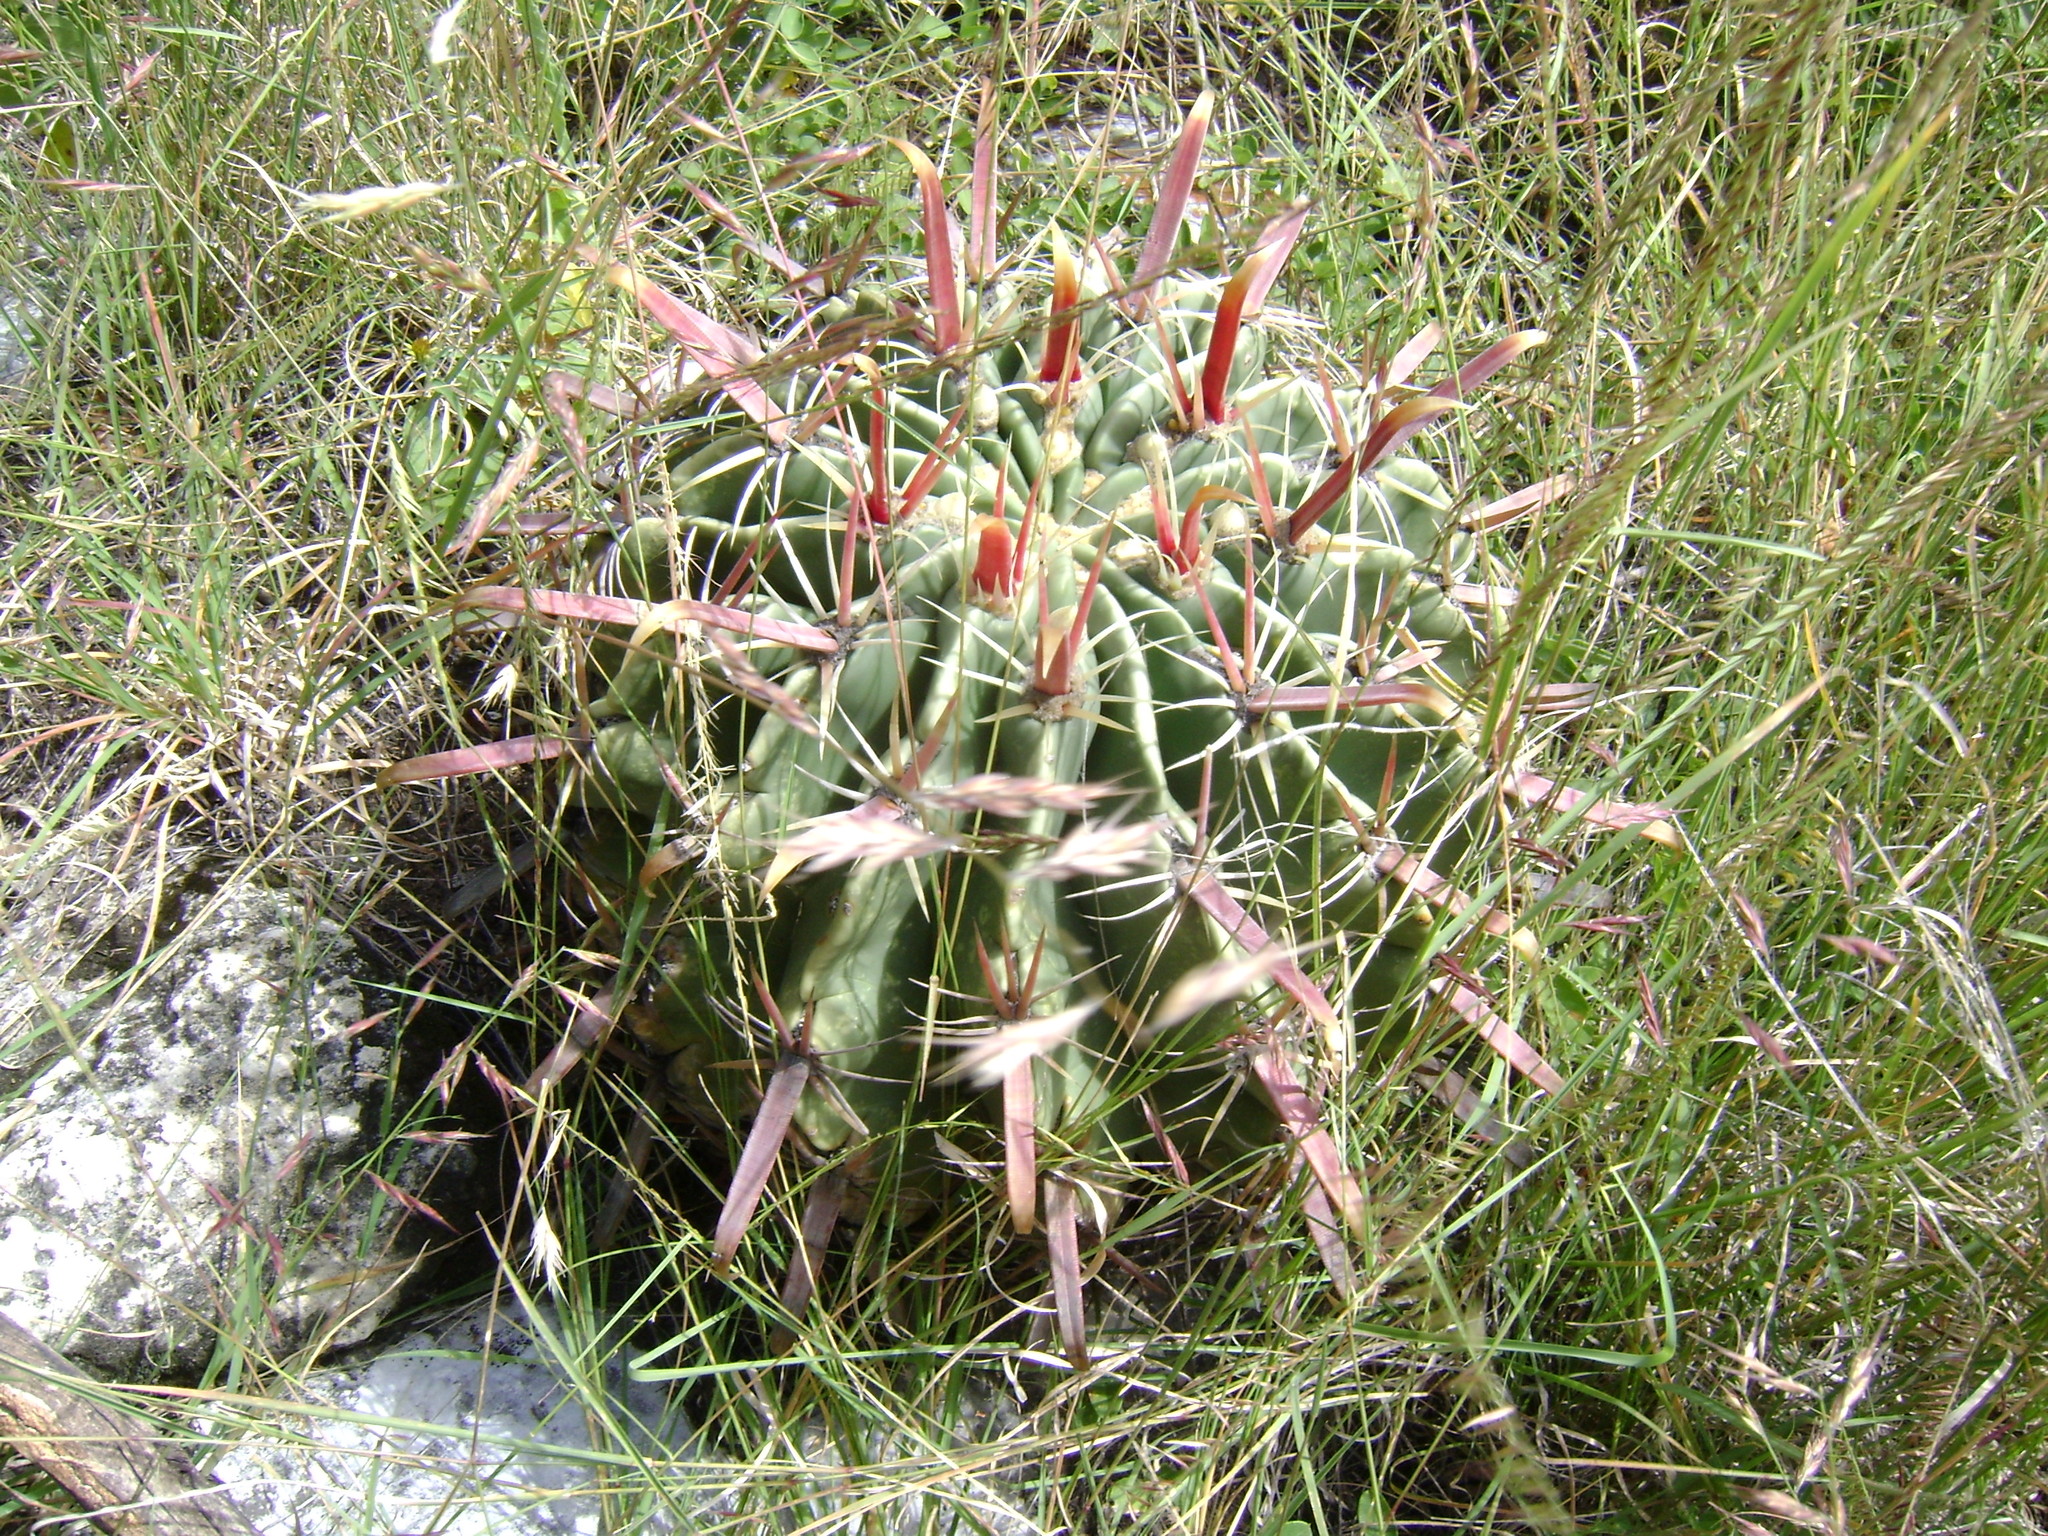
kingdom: Plantae
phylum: Tracheophyta
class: Magnoliopsida
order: Caryophyllales
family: Cactaceae
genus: Ferocactus
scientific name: Ferocactus latispinus
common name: Devil's-tongue cactus
